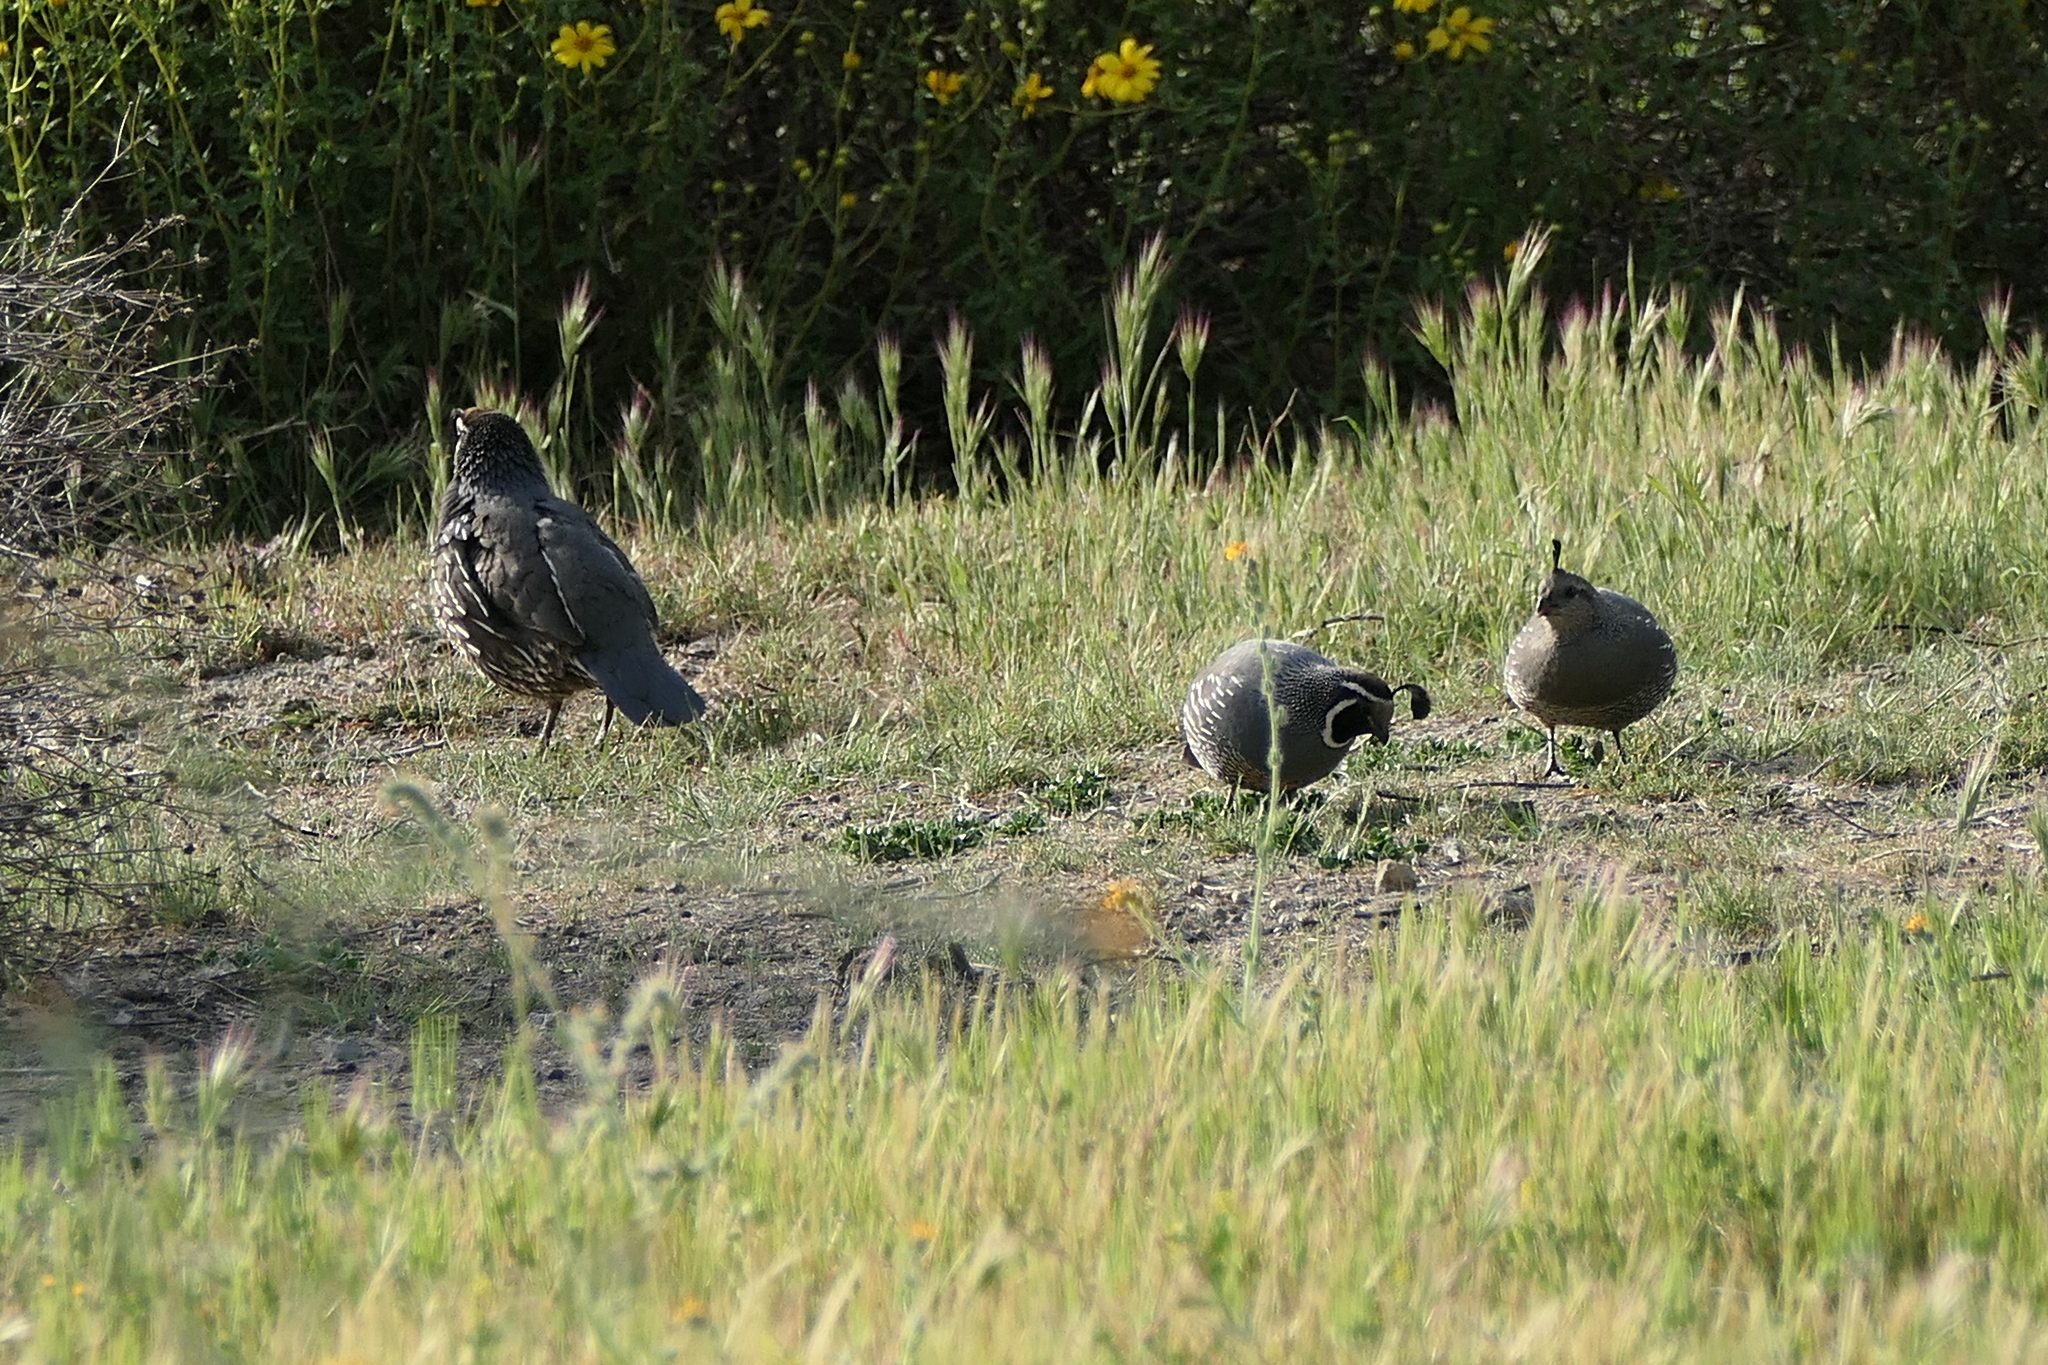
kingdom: Animalia
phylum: Chordata
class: Aves
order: Galliformes
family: Odontophoridae
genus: Callipepla
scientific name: Callipepla californica
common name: California quail
